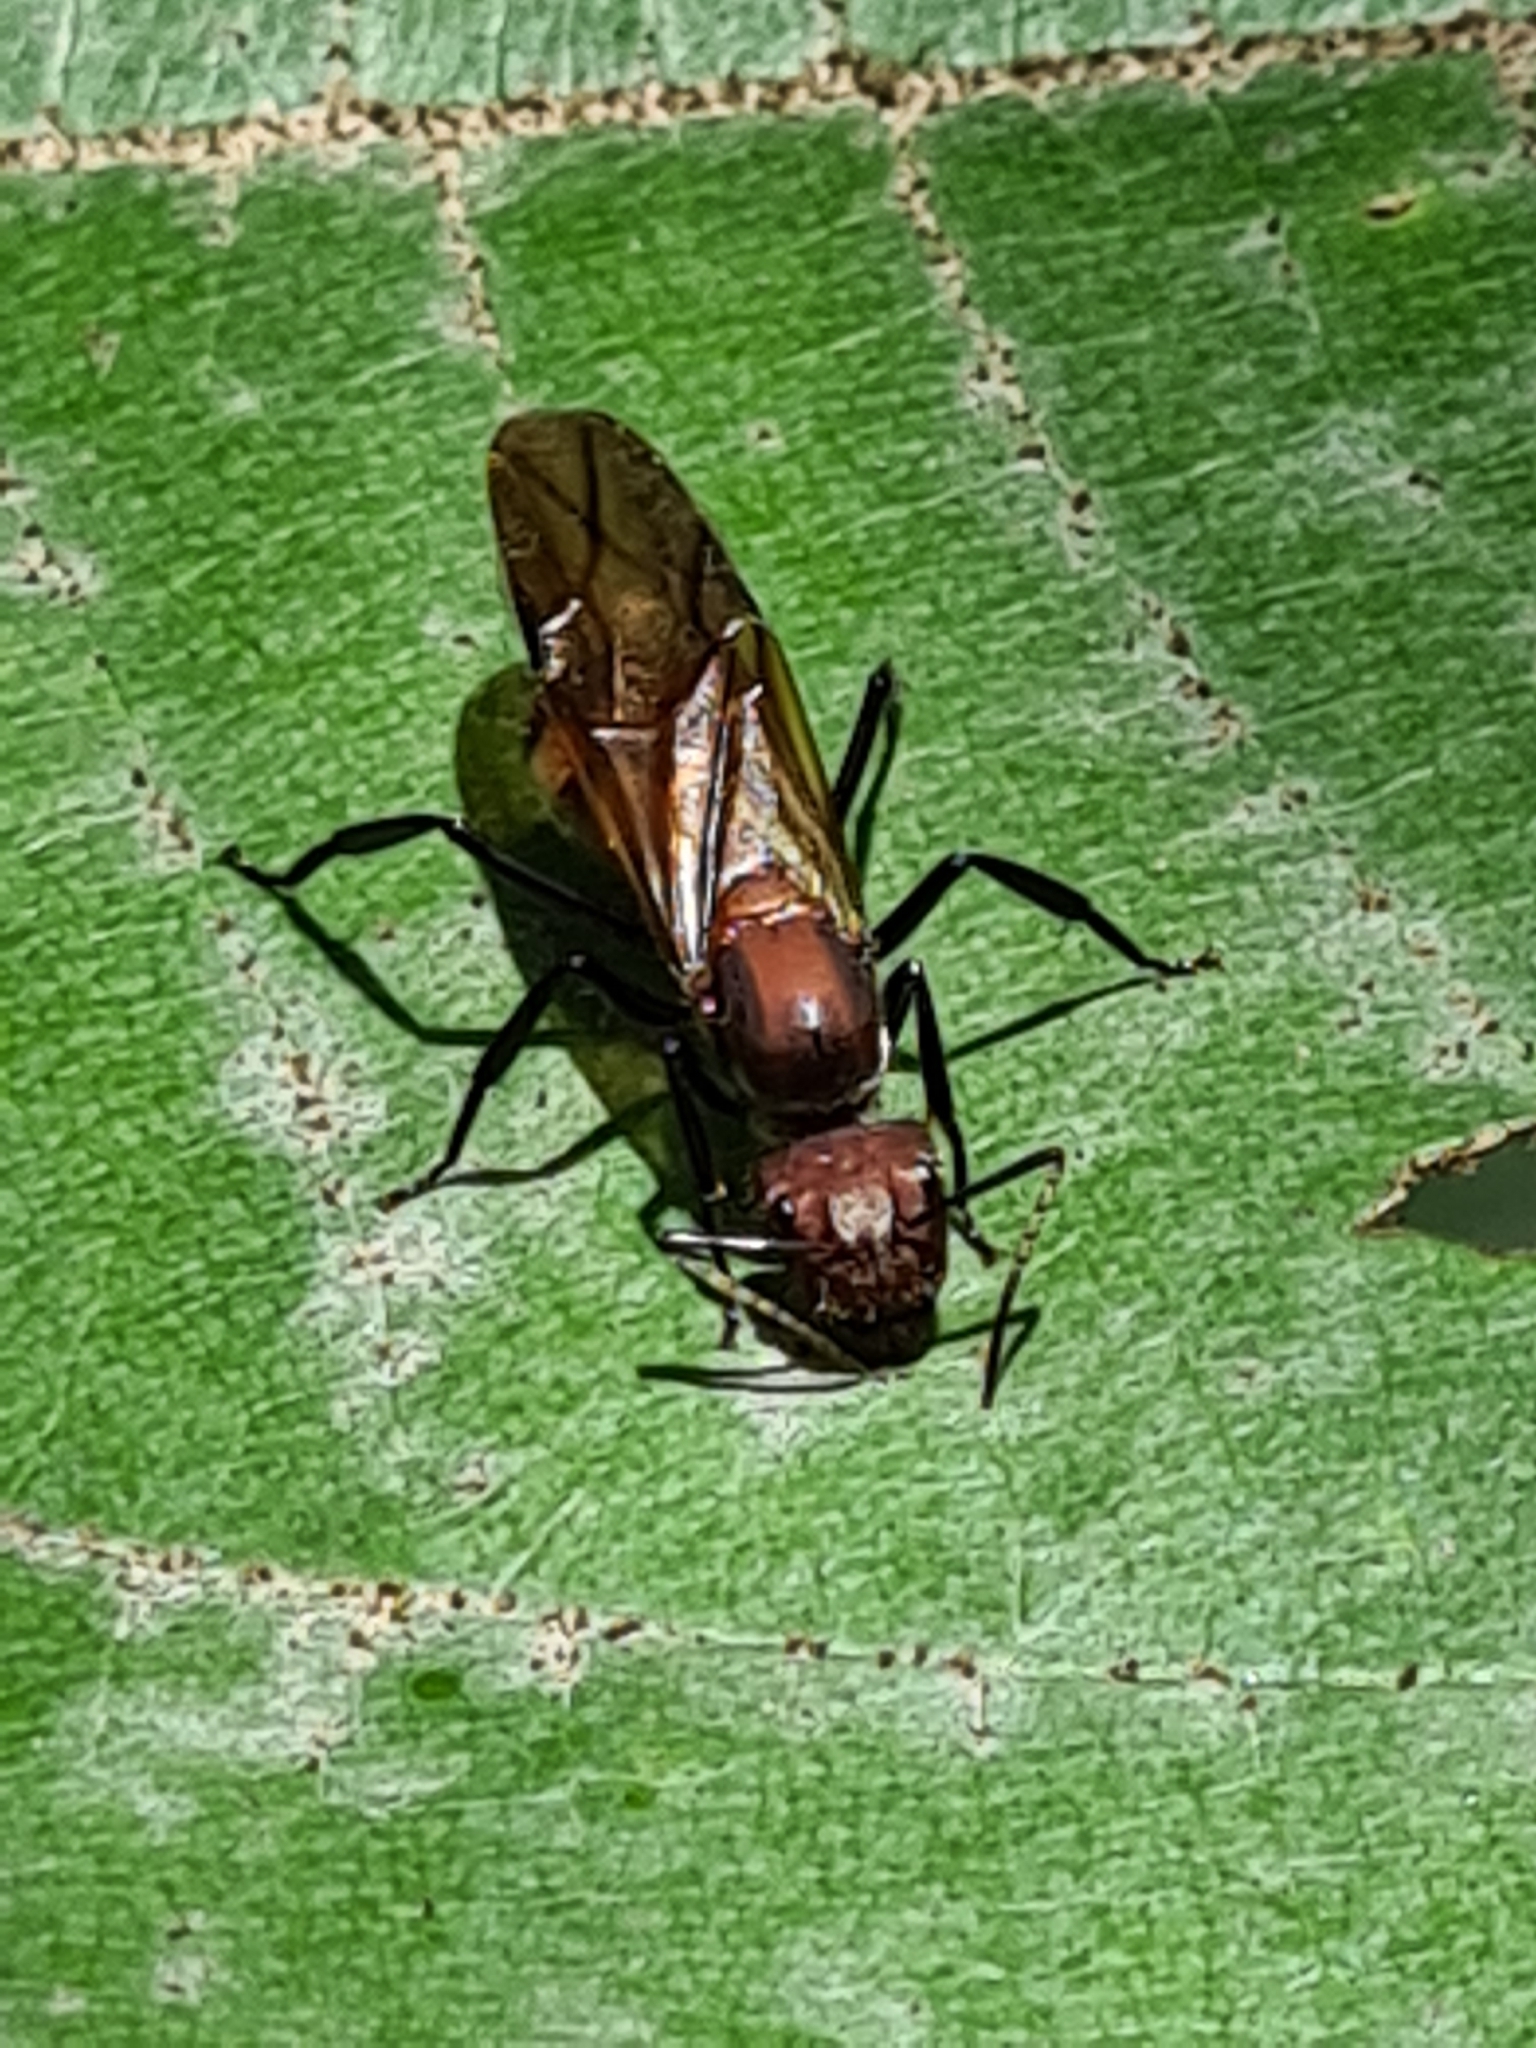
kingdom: Animalia
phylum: Arthropoda
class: Insecta
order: Hymenoptera
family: Formicidae
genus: Camponotus
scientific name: Camponotus mocsaryi
